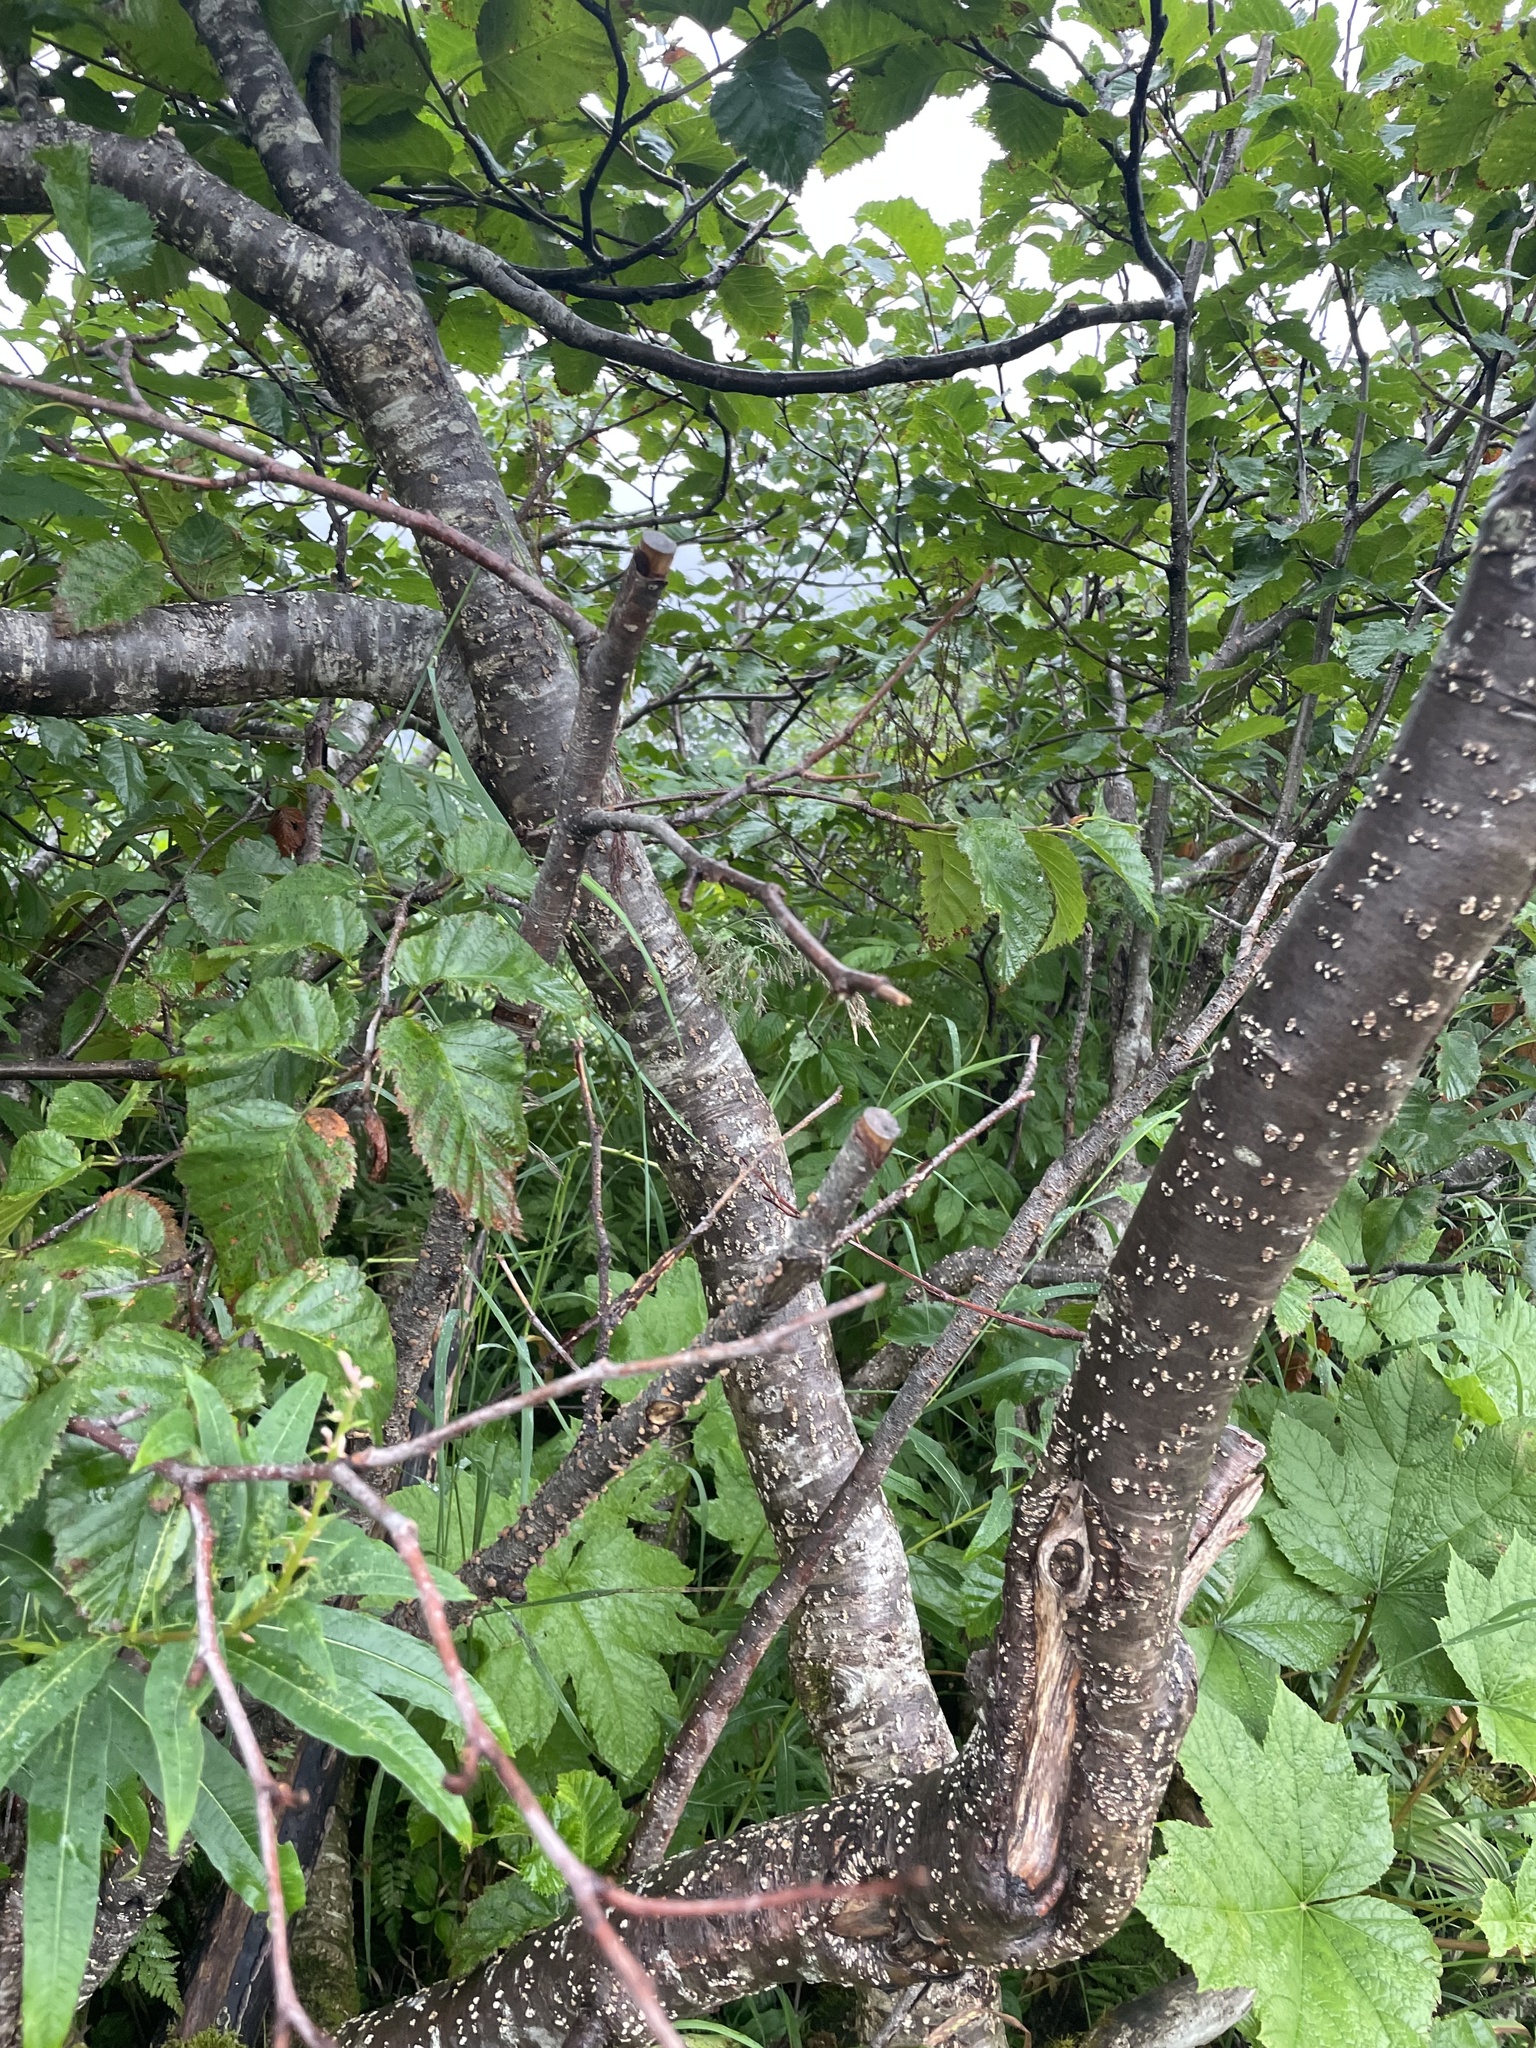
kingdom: Plantae
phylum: Tracheophyta
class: Magnoliopsida
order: Fagales
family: Betulaceae
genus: Alnus
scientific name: Alnus alnobetula
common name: Green alder
